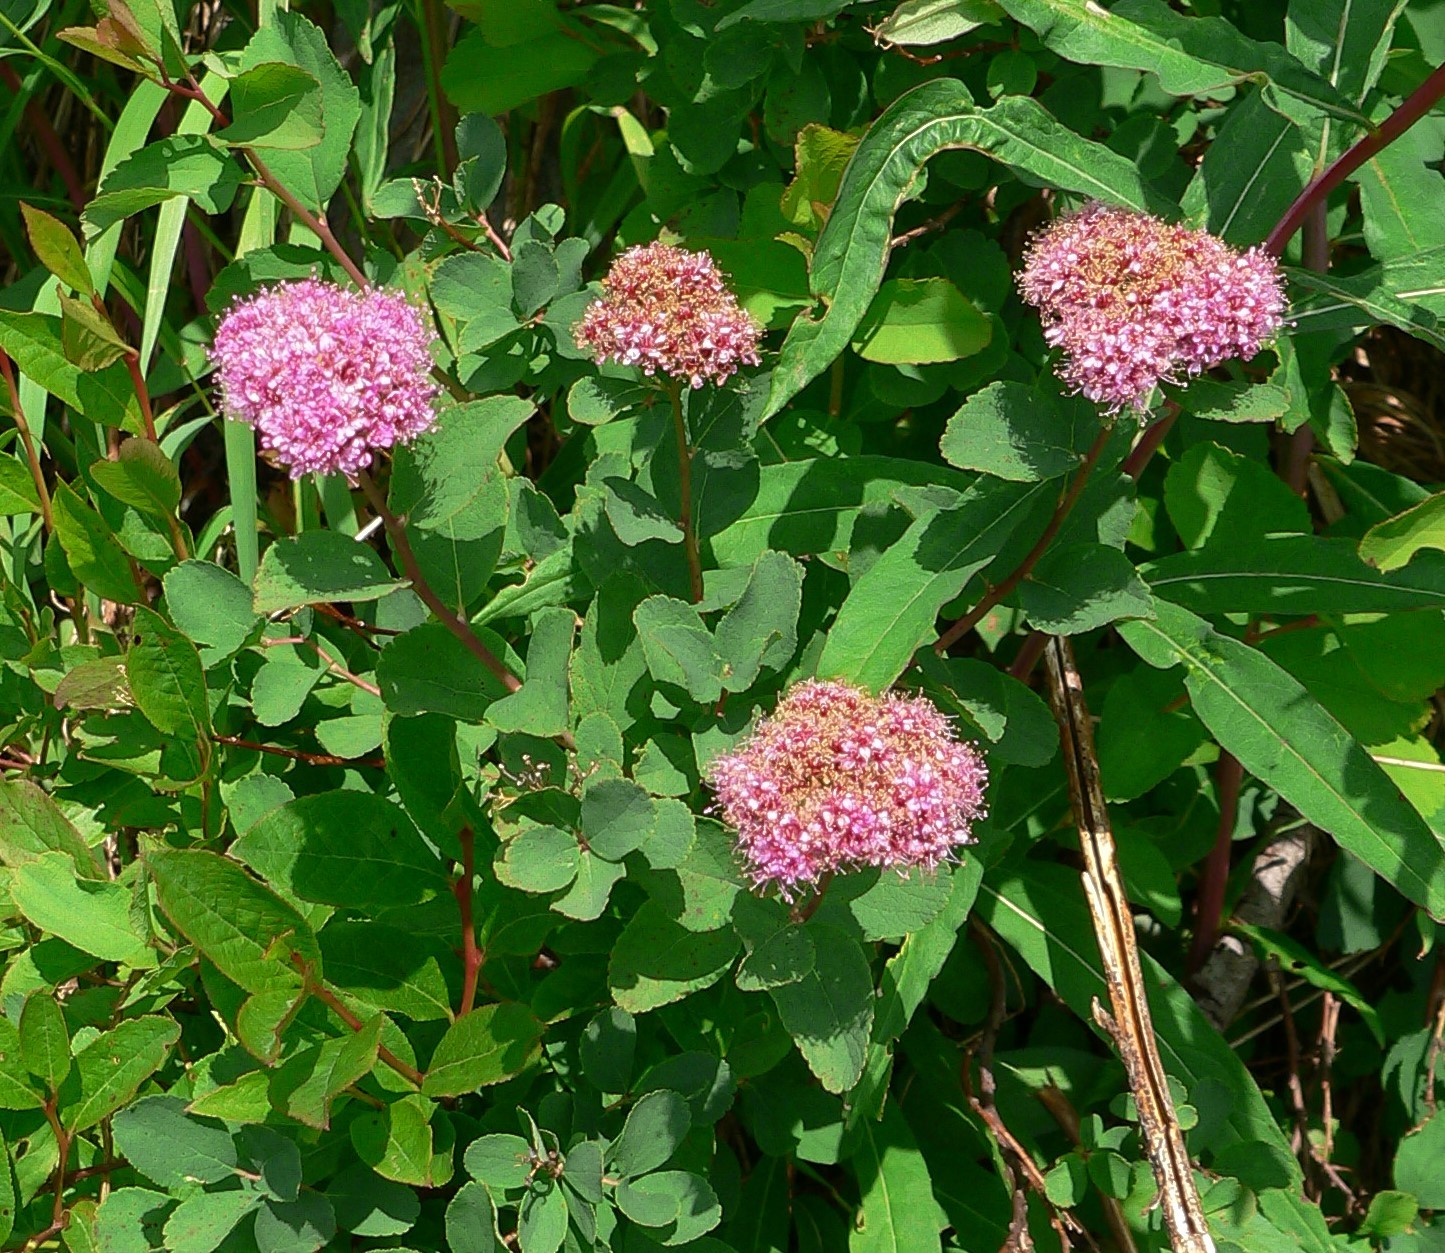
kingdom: Plantae
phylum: Tracheophyta
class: Magnoliopsida
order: Rosales
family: Rosaceae
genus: Spiraea
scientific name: Spiraea splendens
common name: Subalpine meadowsweet
